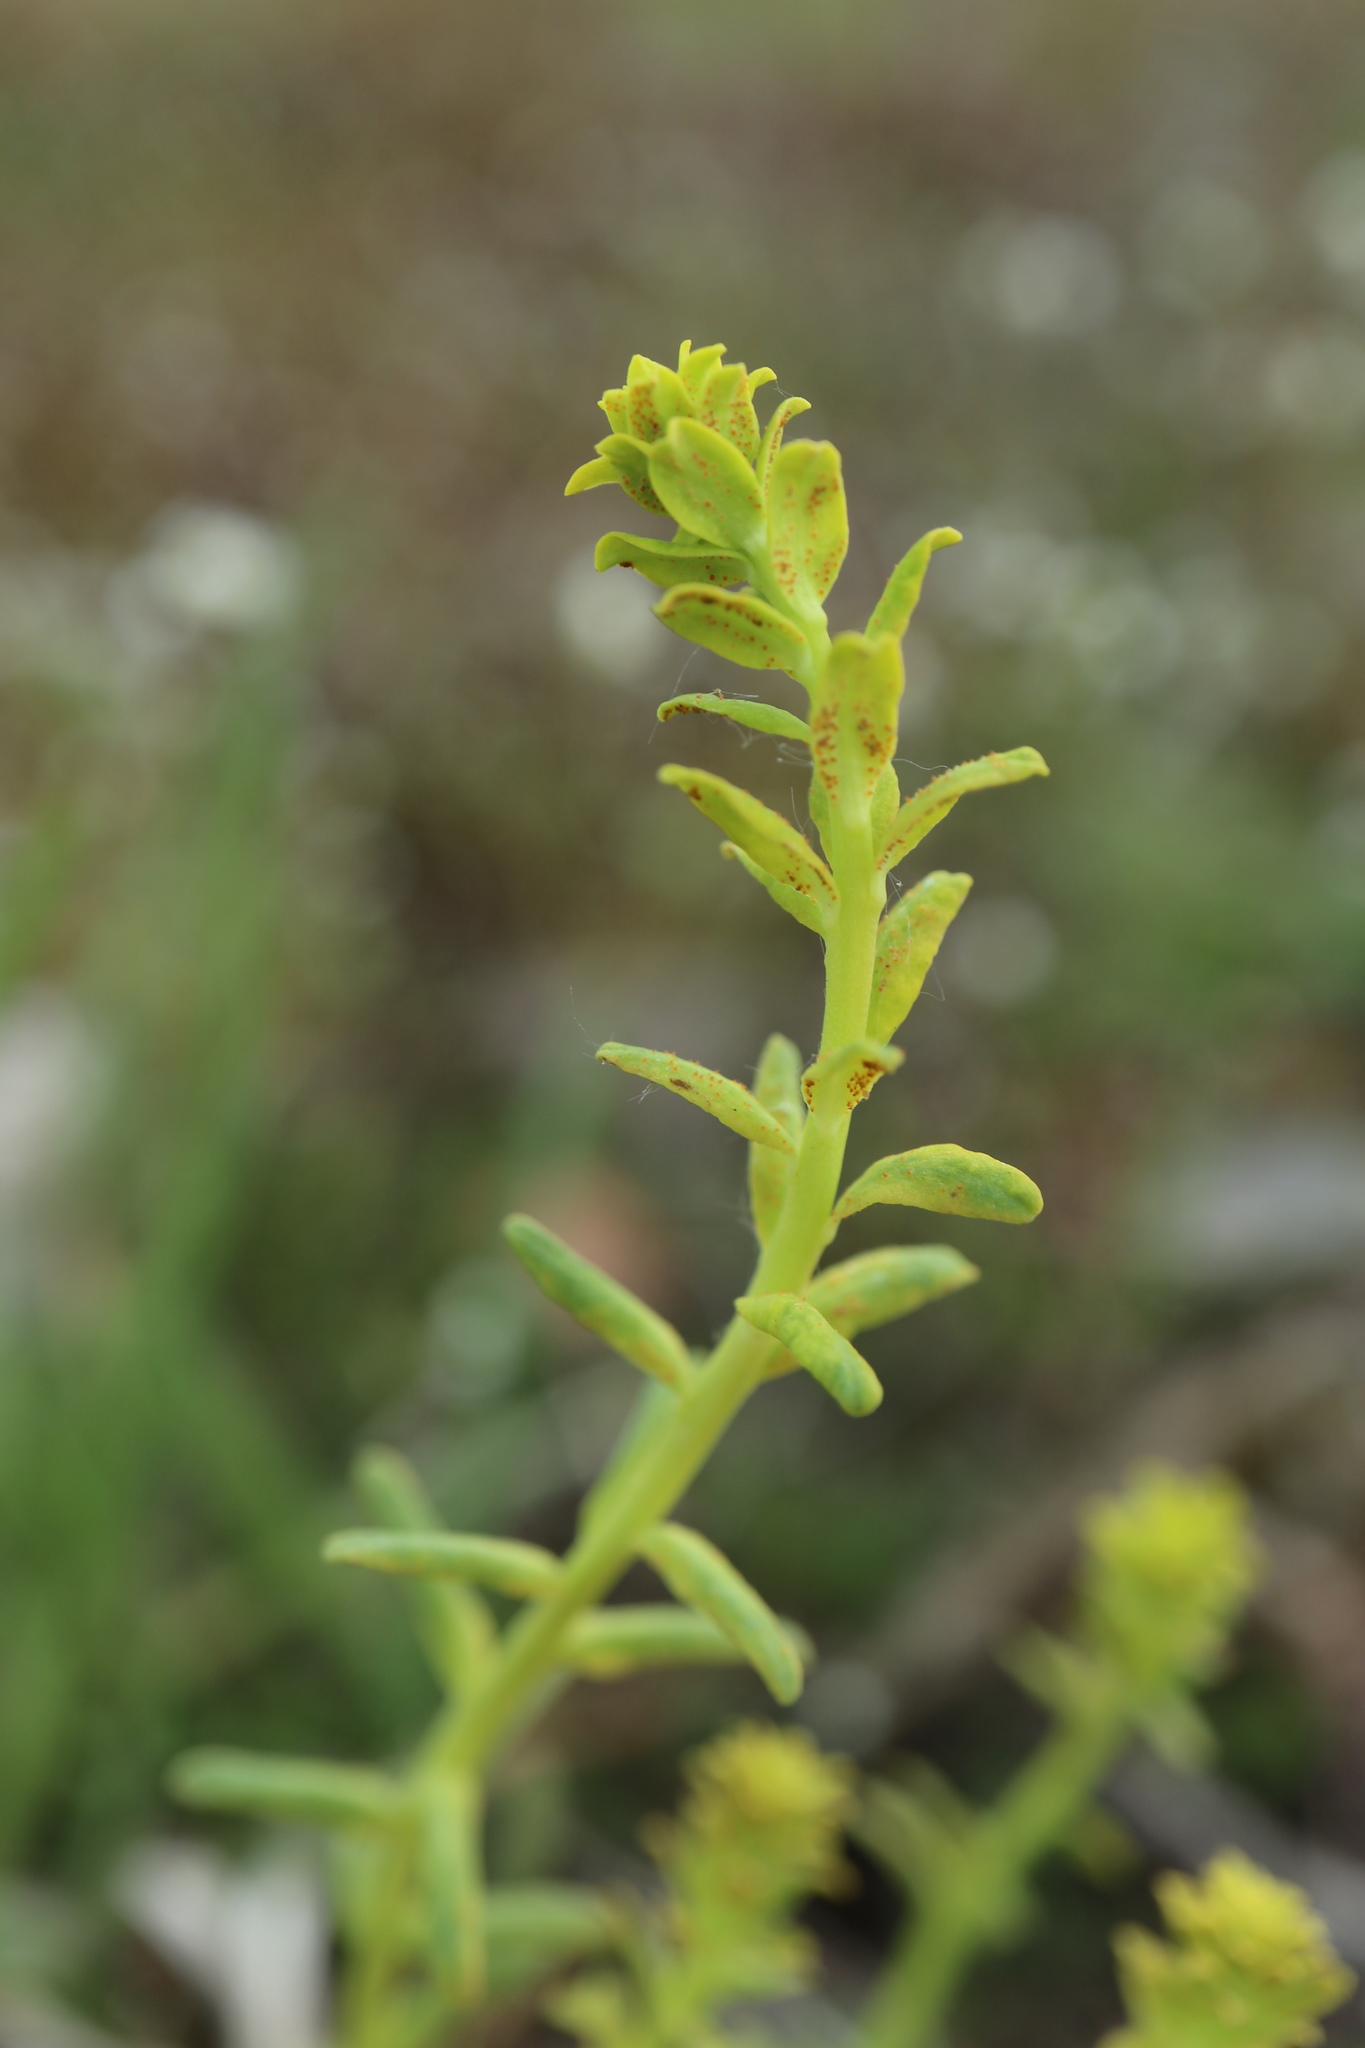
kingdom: Plantae
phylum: Tracheophyta
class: Magnoliopsida
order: Malpighiales
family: Euphorbiaceae
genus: Euphorbia
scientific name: Euphorbia cyparissias
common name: Cypress spurge
